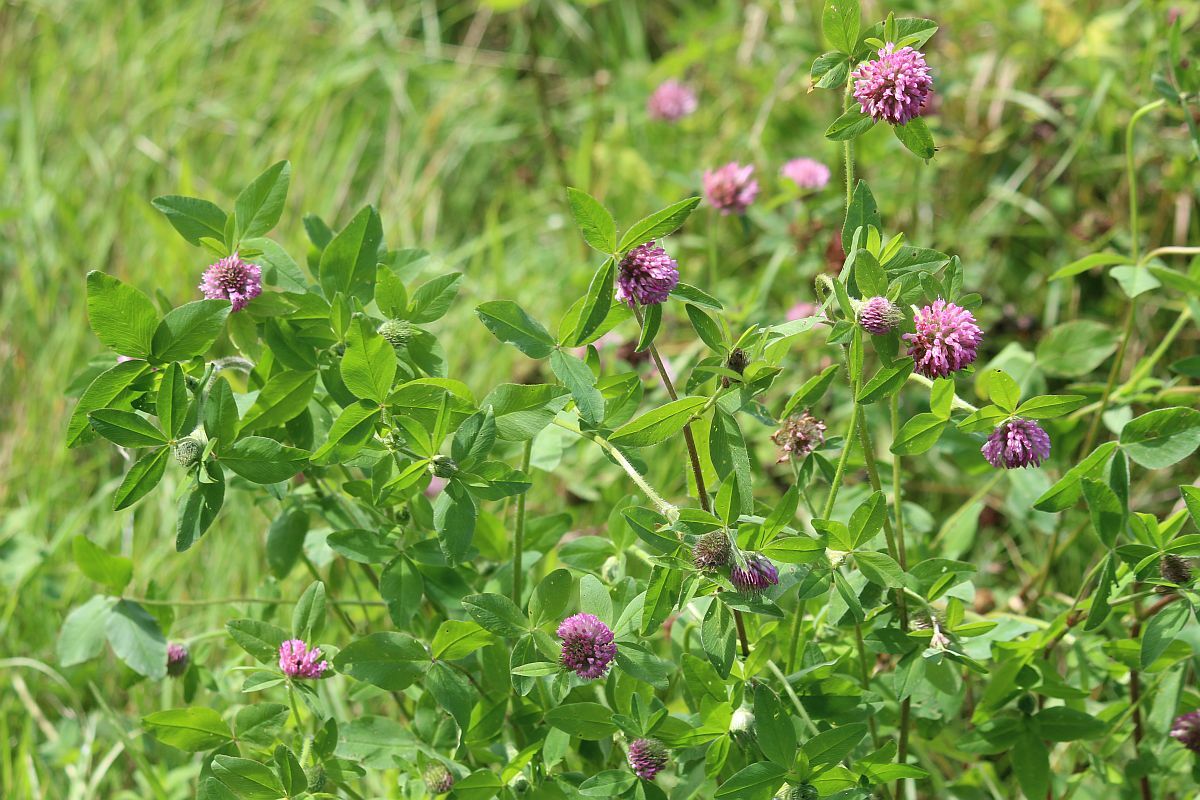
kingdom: Plantae
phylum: Tracheophyta
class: Magnoliopsida
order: Fabales
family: Fabaceae
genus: Trifolium
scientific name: Trifolium pratense
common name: Red clover
